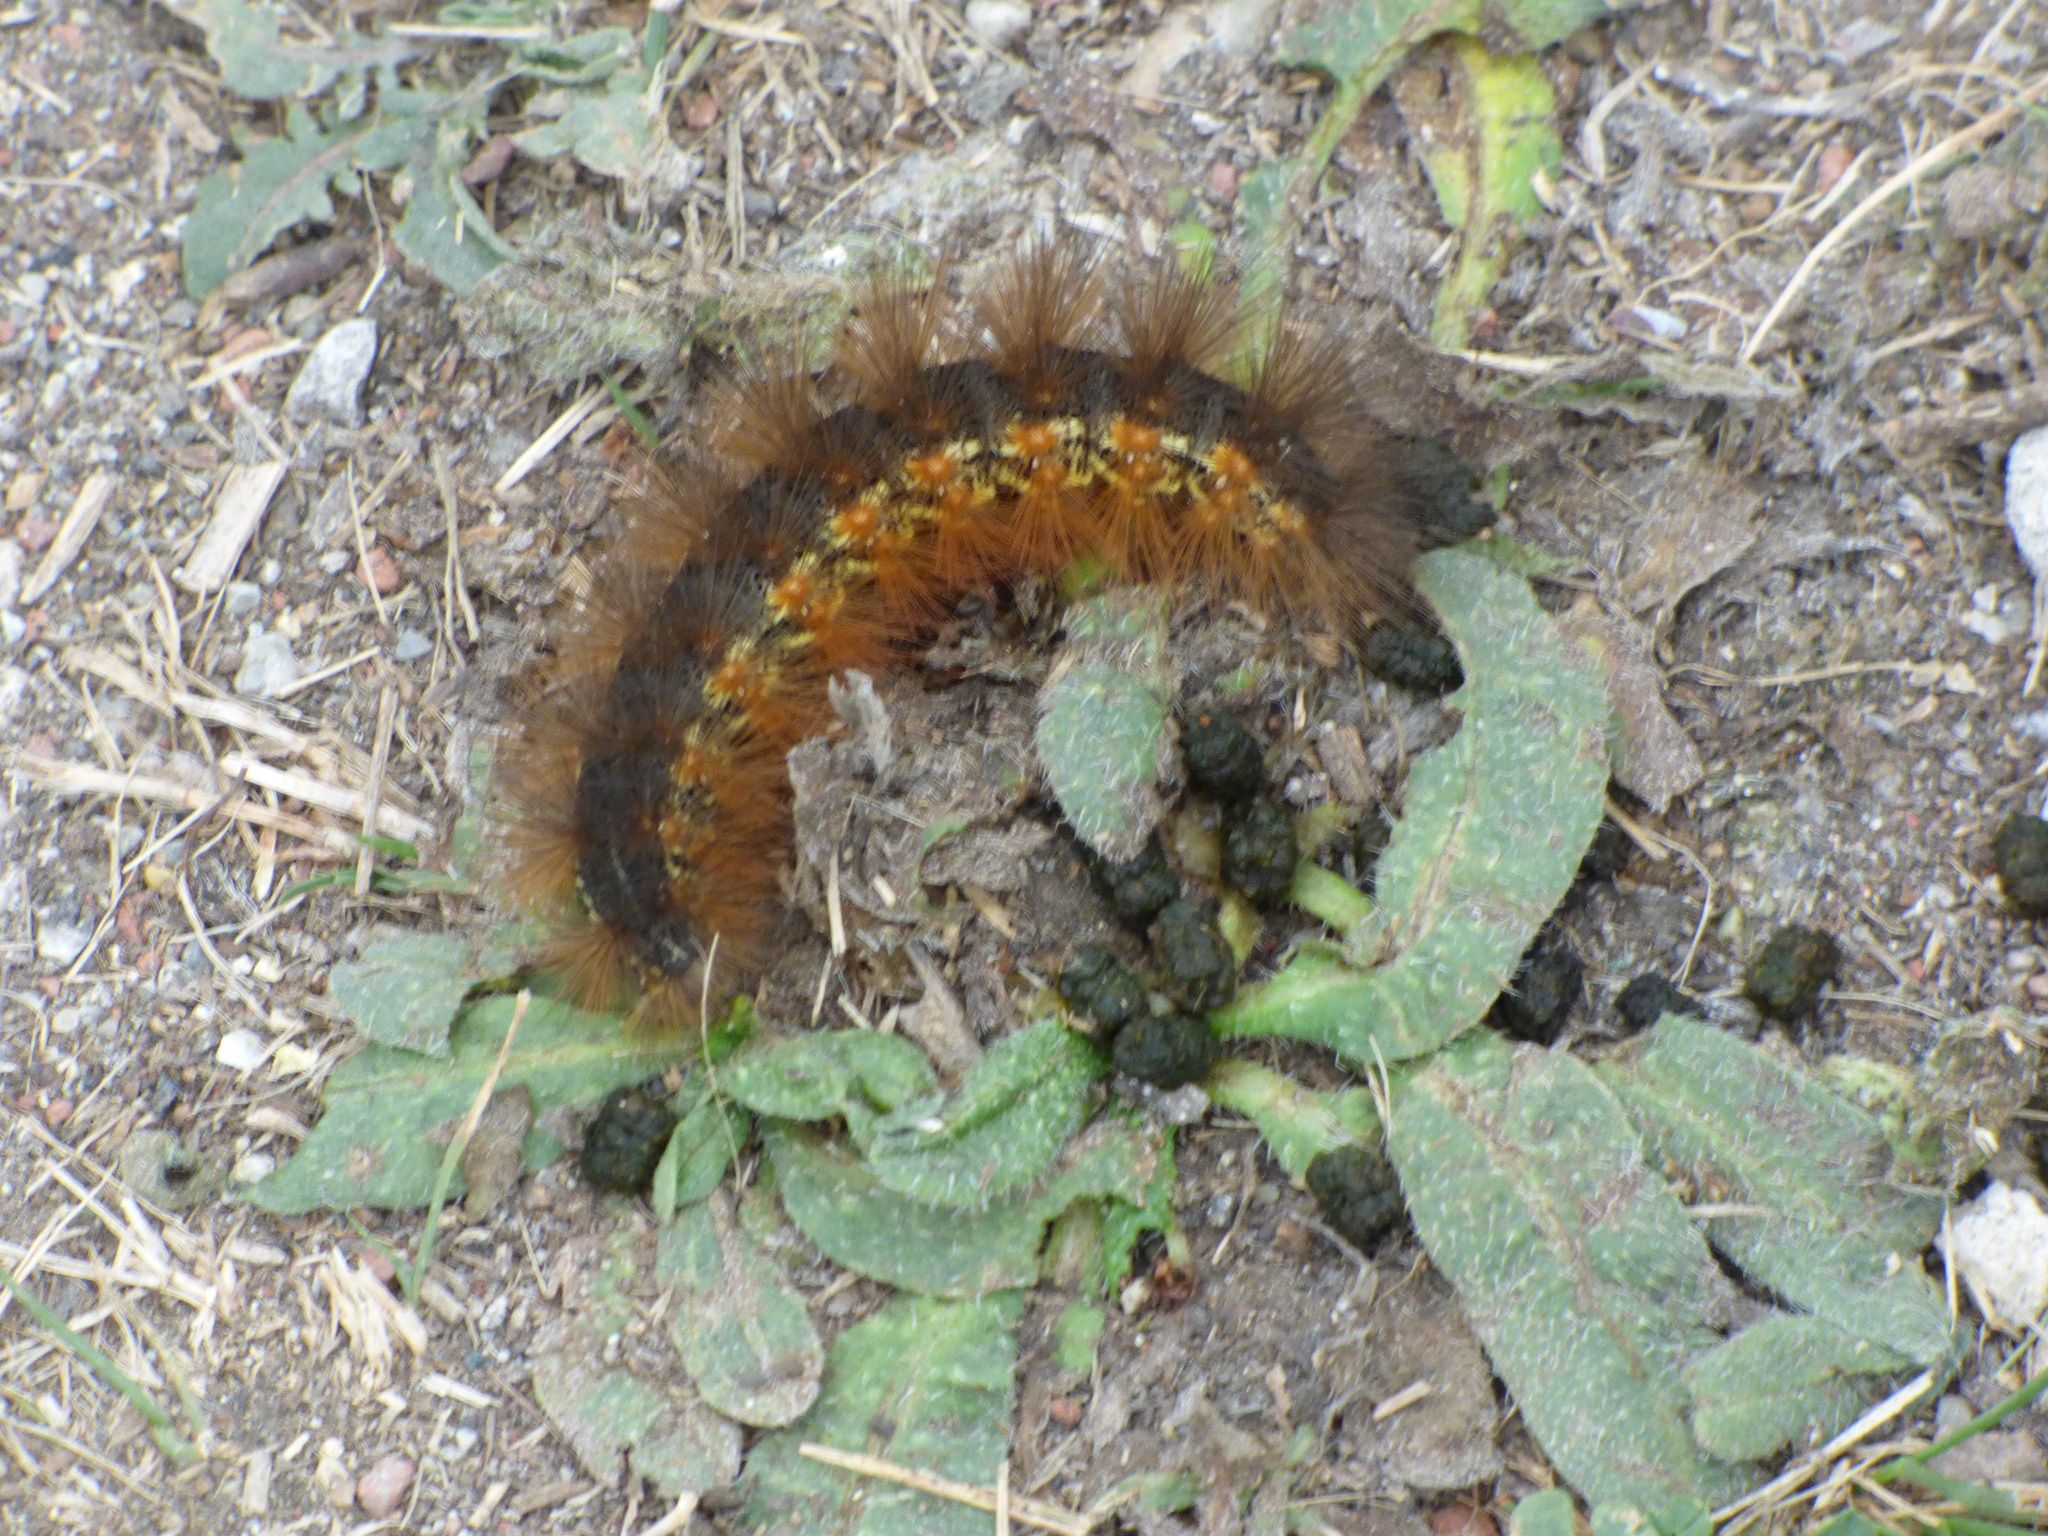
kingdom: Animalia
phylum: Arthropoda
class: Insecta
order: Lepidoptera
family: Erebidae
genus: Estigmene
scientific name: Estigmene acrea
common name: Salt marsh moth
